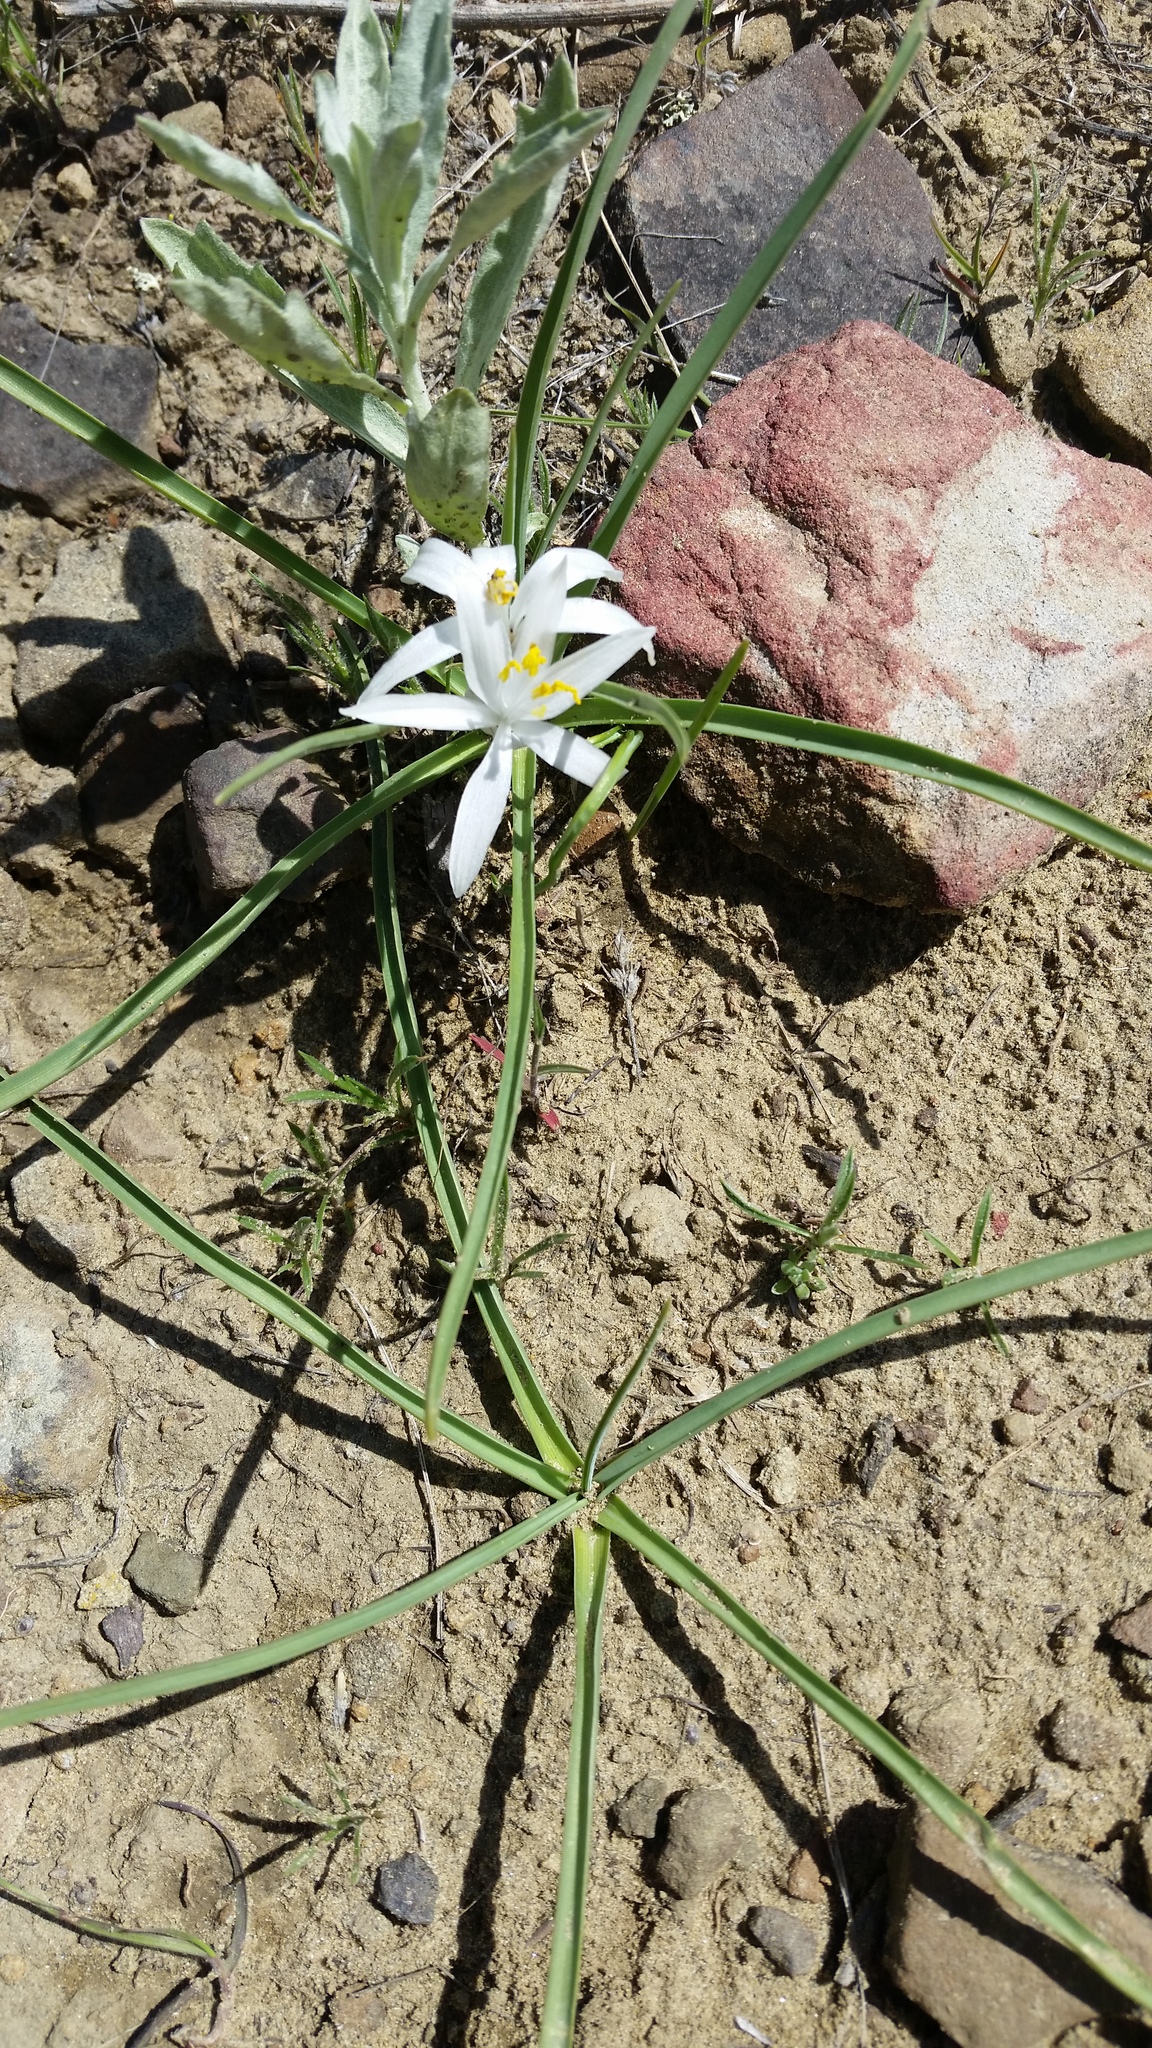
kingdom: Plantae
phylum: Tracheophyta
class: Liliopsida
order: Asparagales
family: Asparagaceae
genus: Leucocrinum
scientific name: Leucocrinum montanum
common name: Mountain-lily
